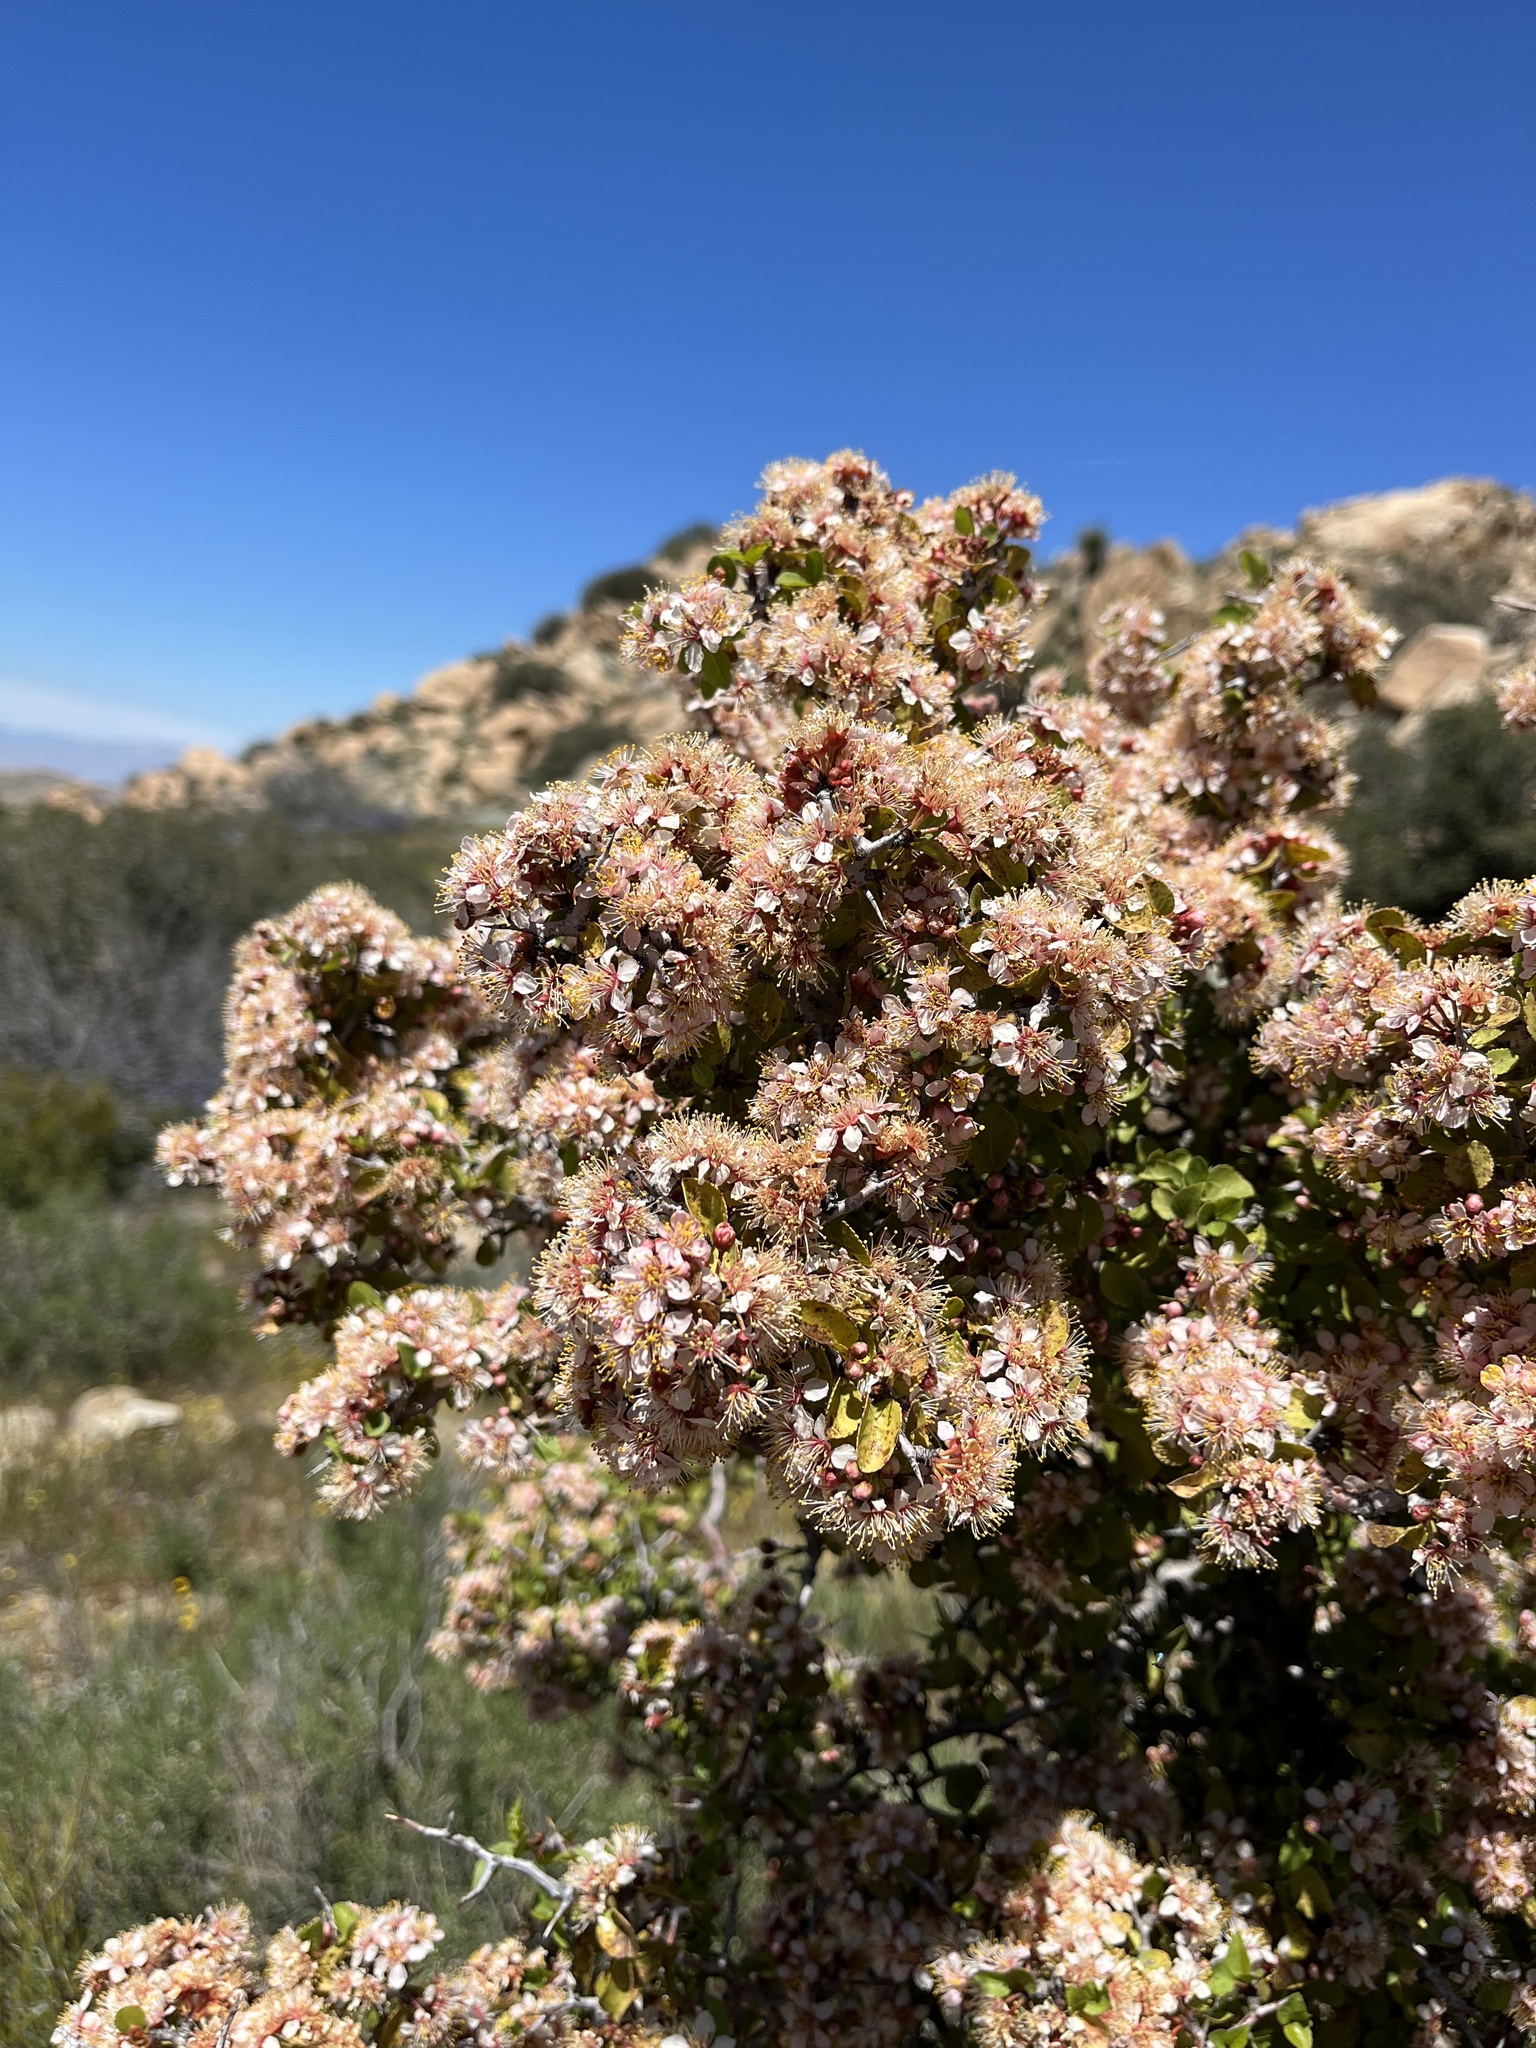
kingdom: Plantae
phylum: Tracheophyta
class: Magnoliopsida
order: Rosales
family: Rosaceae
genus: Prunus
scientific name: Prunus fremontii
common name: Desert apricot
